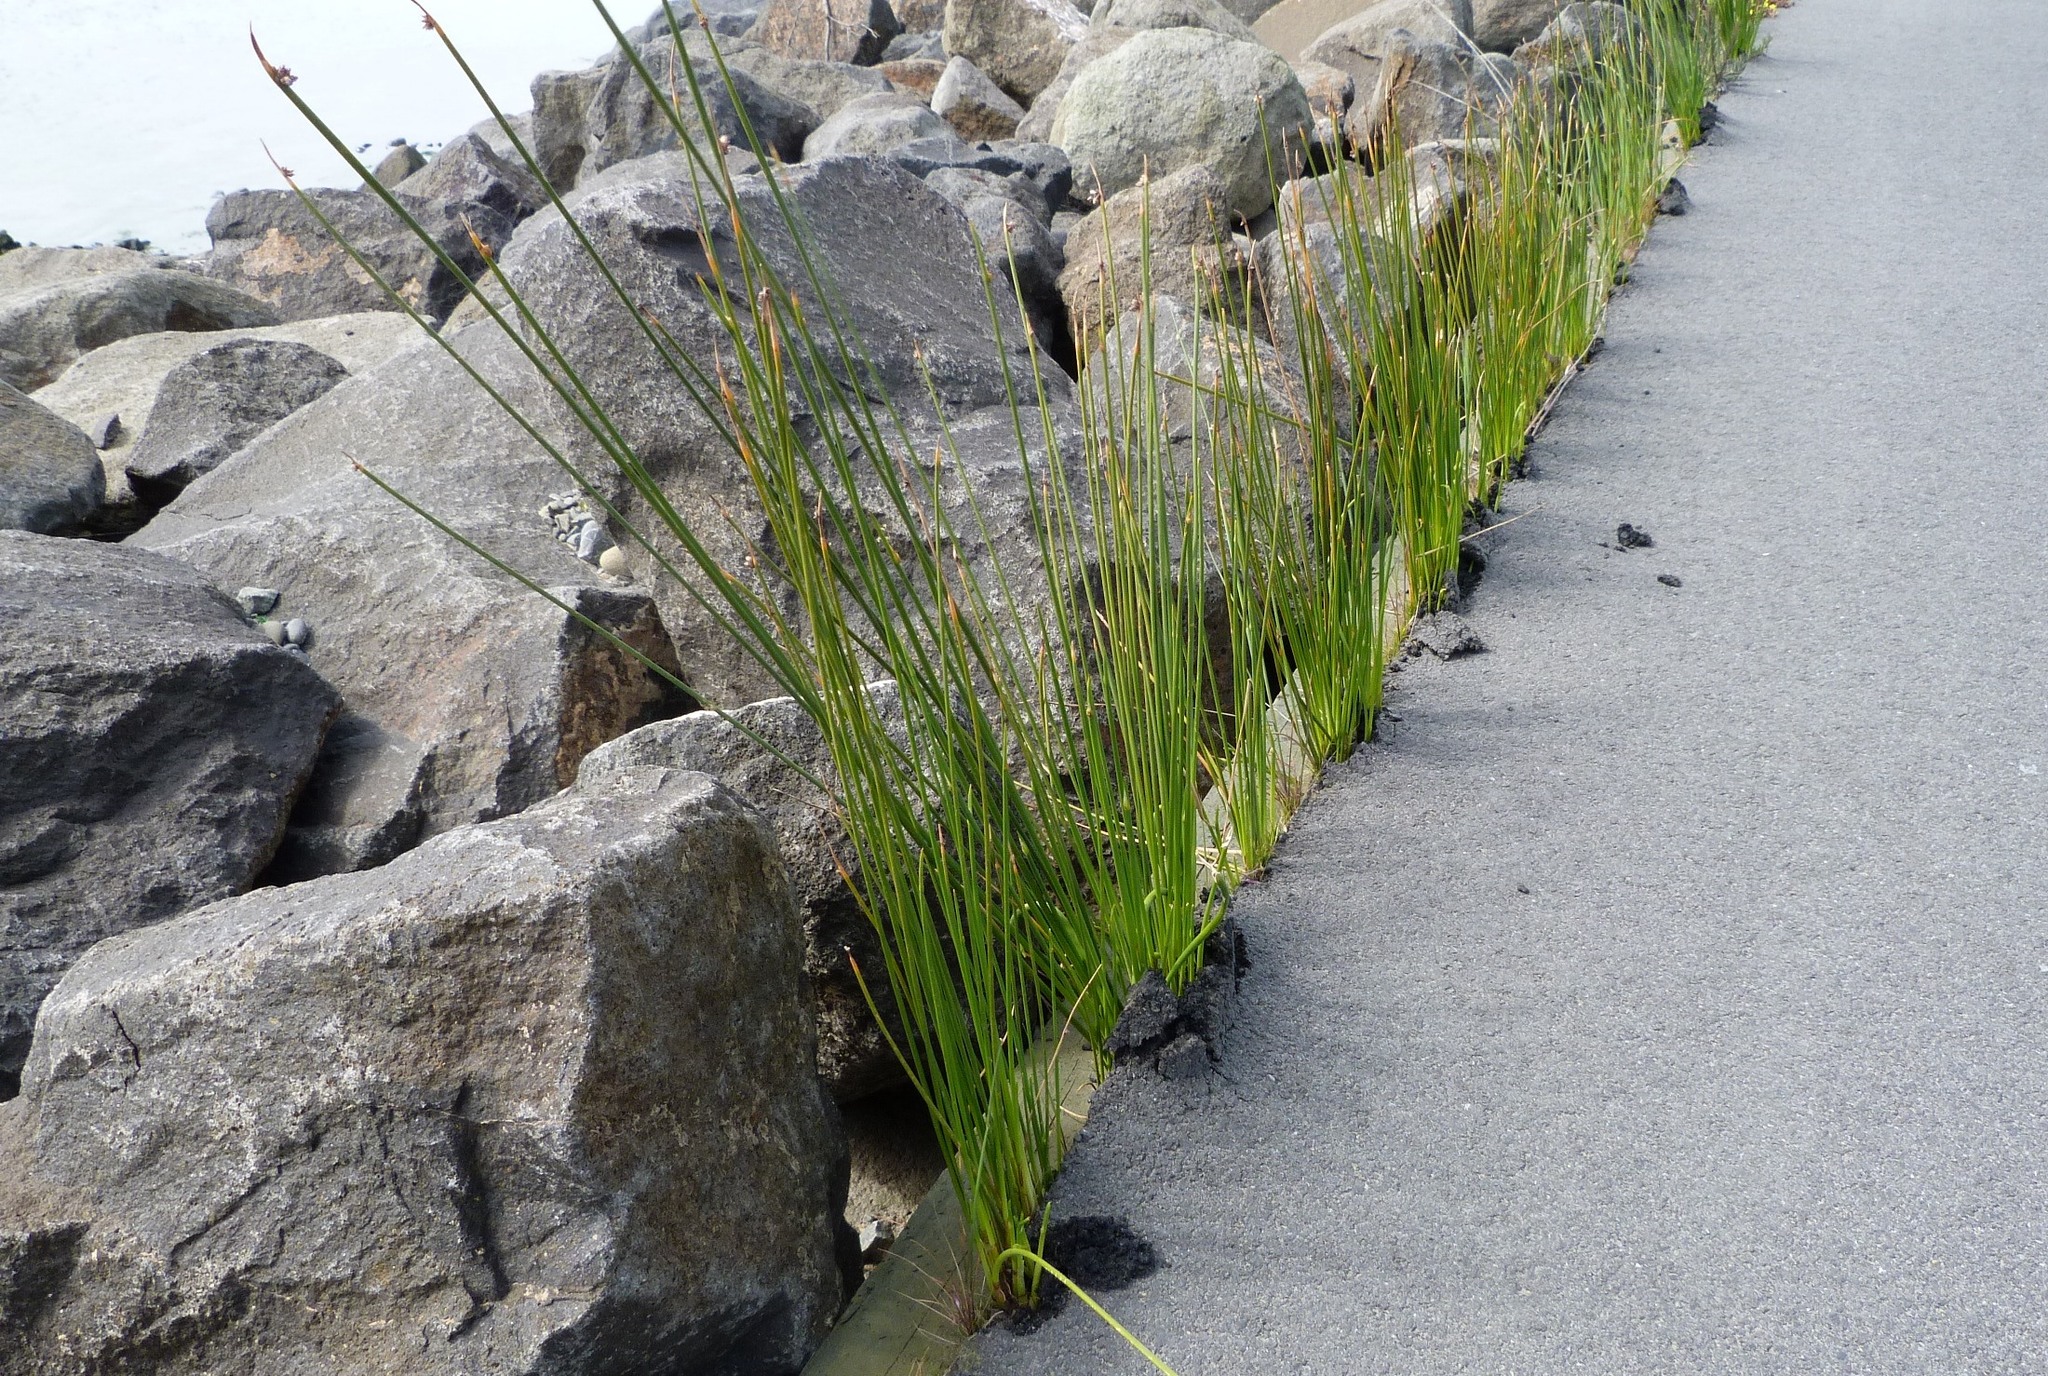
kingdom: Plantae
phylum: Tracheophyta
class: Liliopsida
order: Poales
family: Cyperaceae
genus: Ficinia
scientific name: Ficinia nodosa
